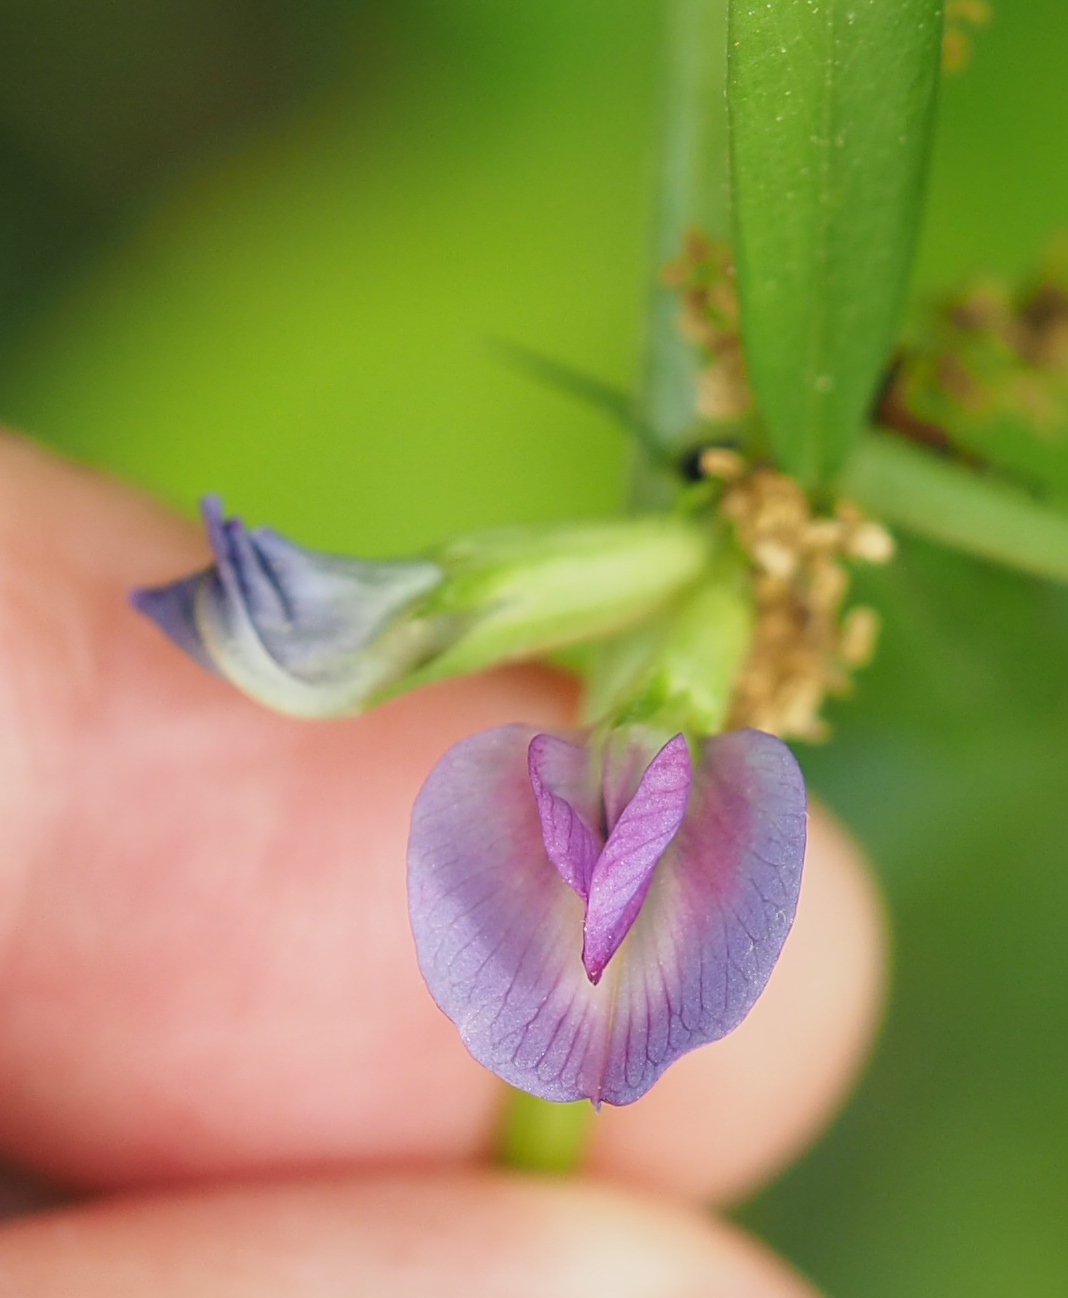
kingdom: Plantae
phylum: Tracheophyta
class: Magnoliopsida
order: Fabales
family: Fabaceae
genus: Vicia
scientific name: Vicia sativa
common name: Garden vetch
